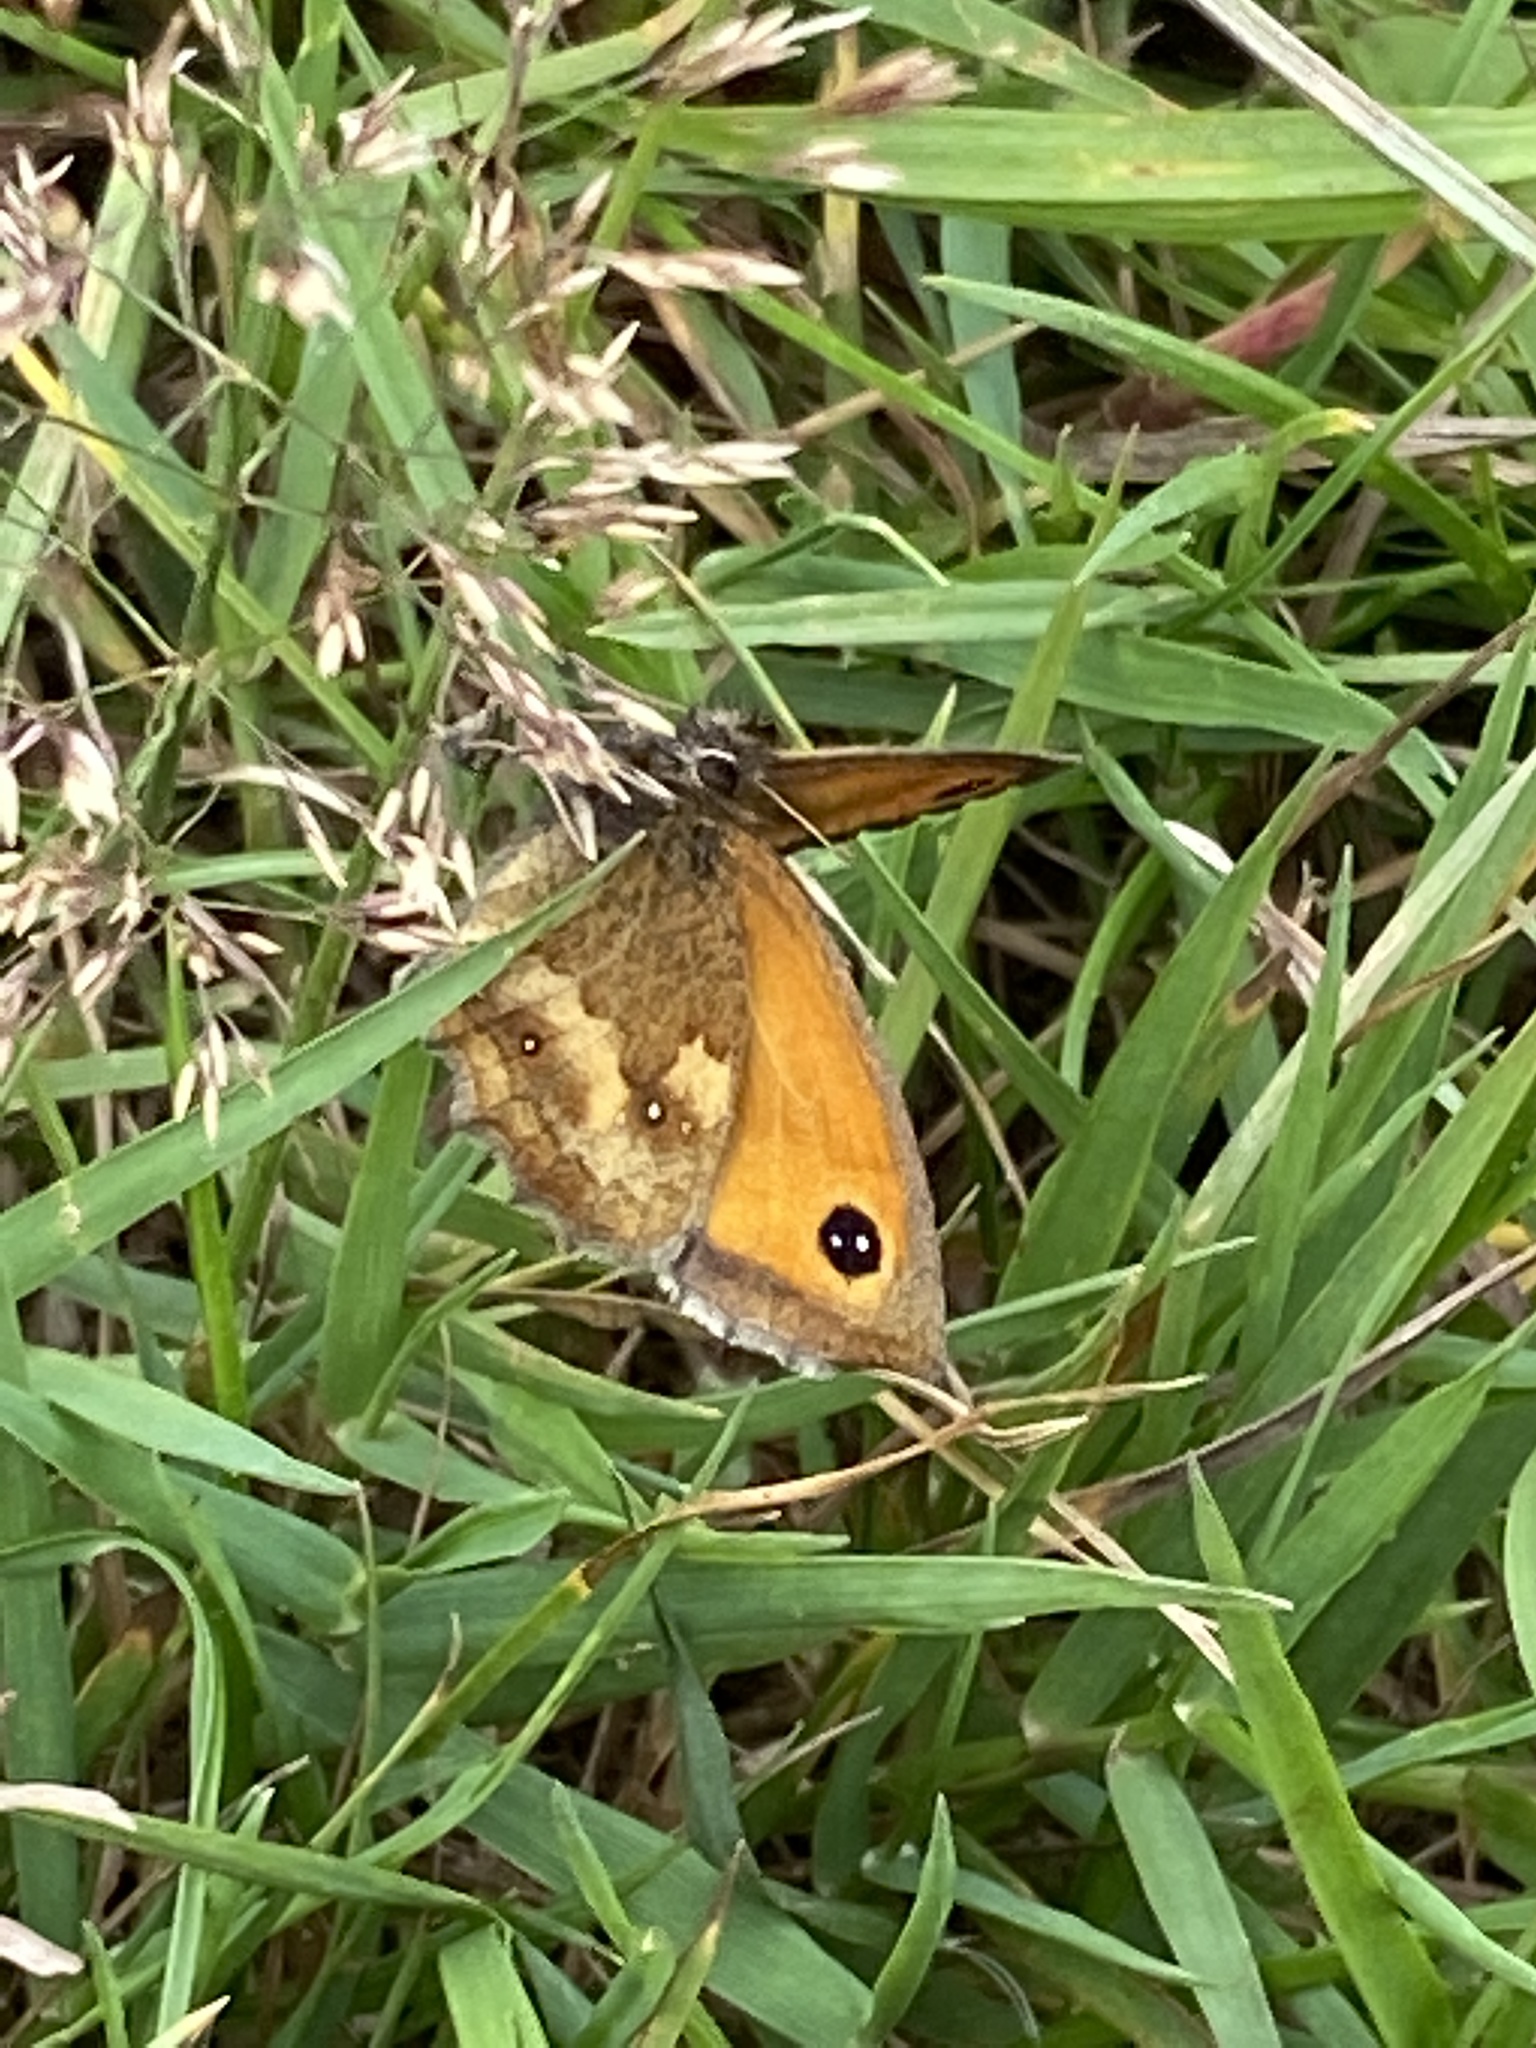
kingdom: Animalia
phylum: Arthropoda
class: Insecta
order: Lepidoptera
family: Nymphalidae
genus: Pyronia
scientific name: Pyronia tithonus
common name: Gatekeeper
